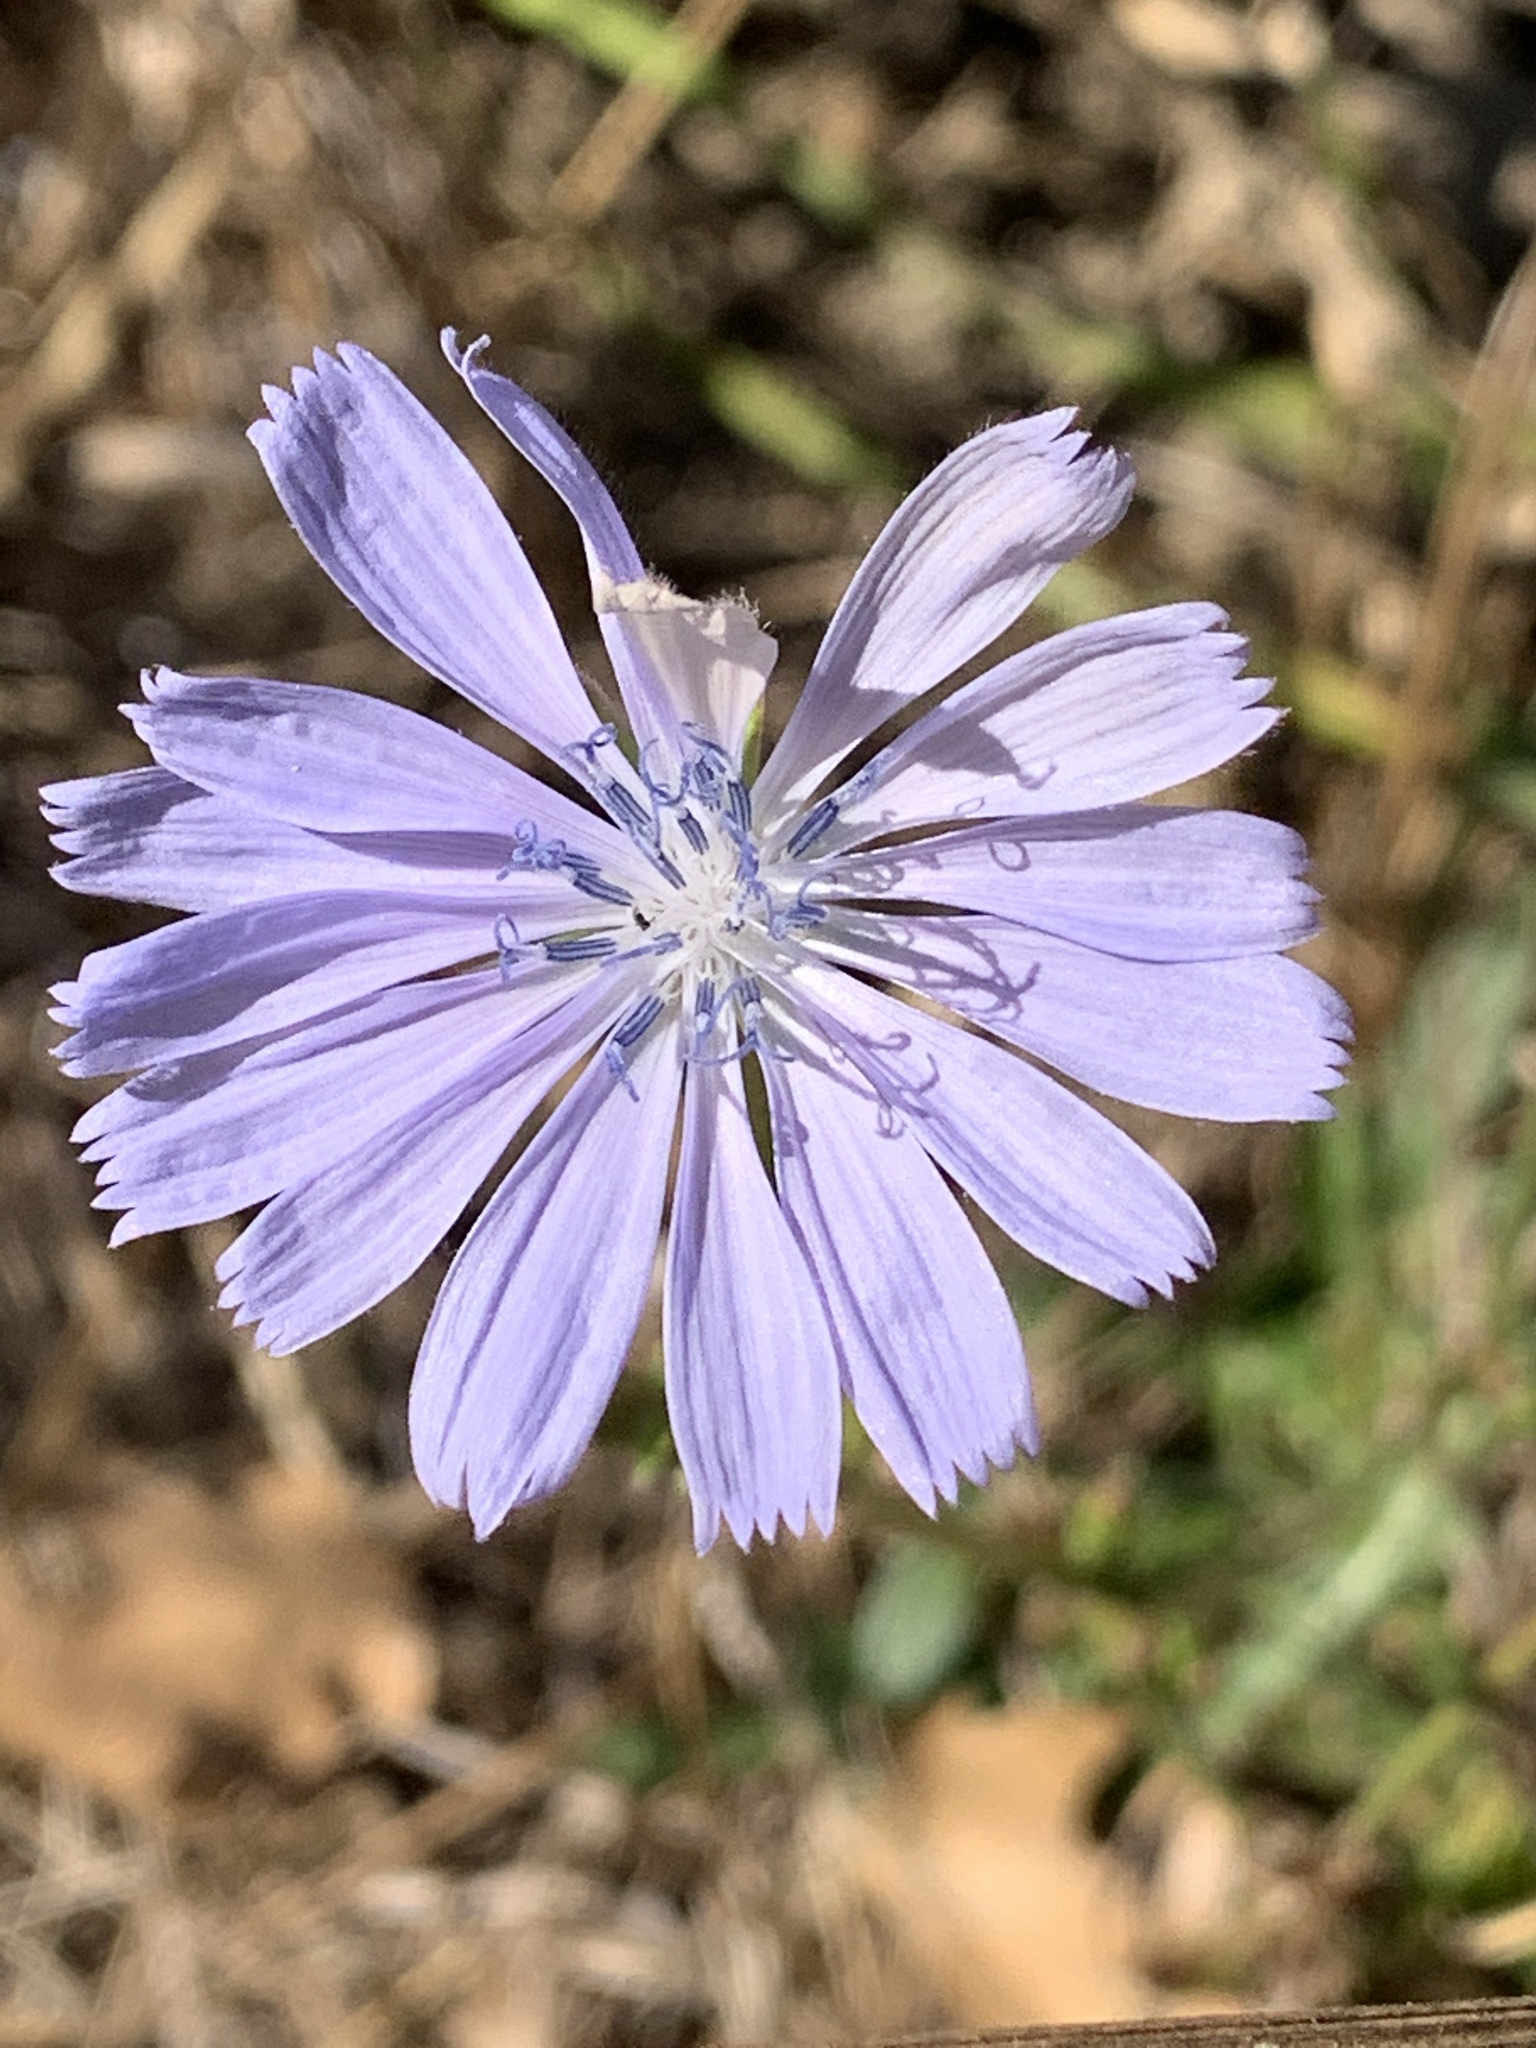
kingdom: Plantae
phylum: Tracheophyta
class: Magnoliopsida
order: Asterales
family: Asteraceae
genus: Cichorium
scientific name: Cichorium intybus
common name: Chicory
